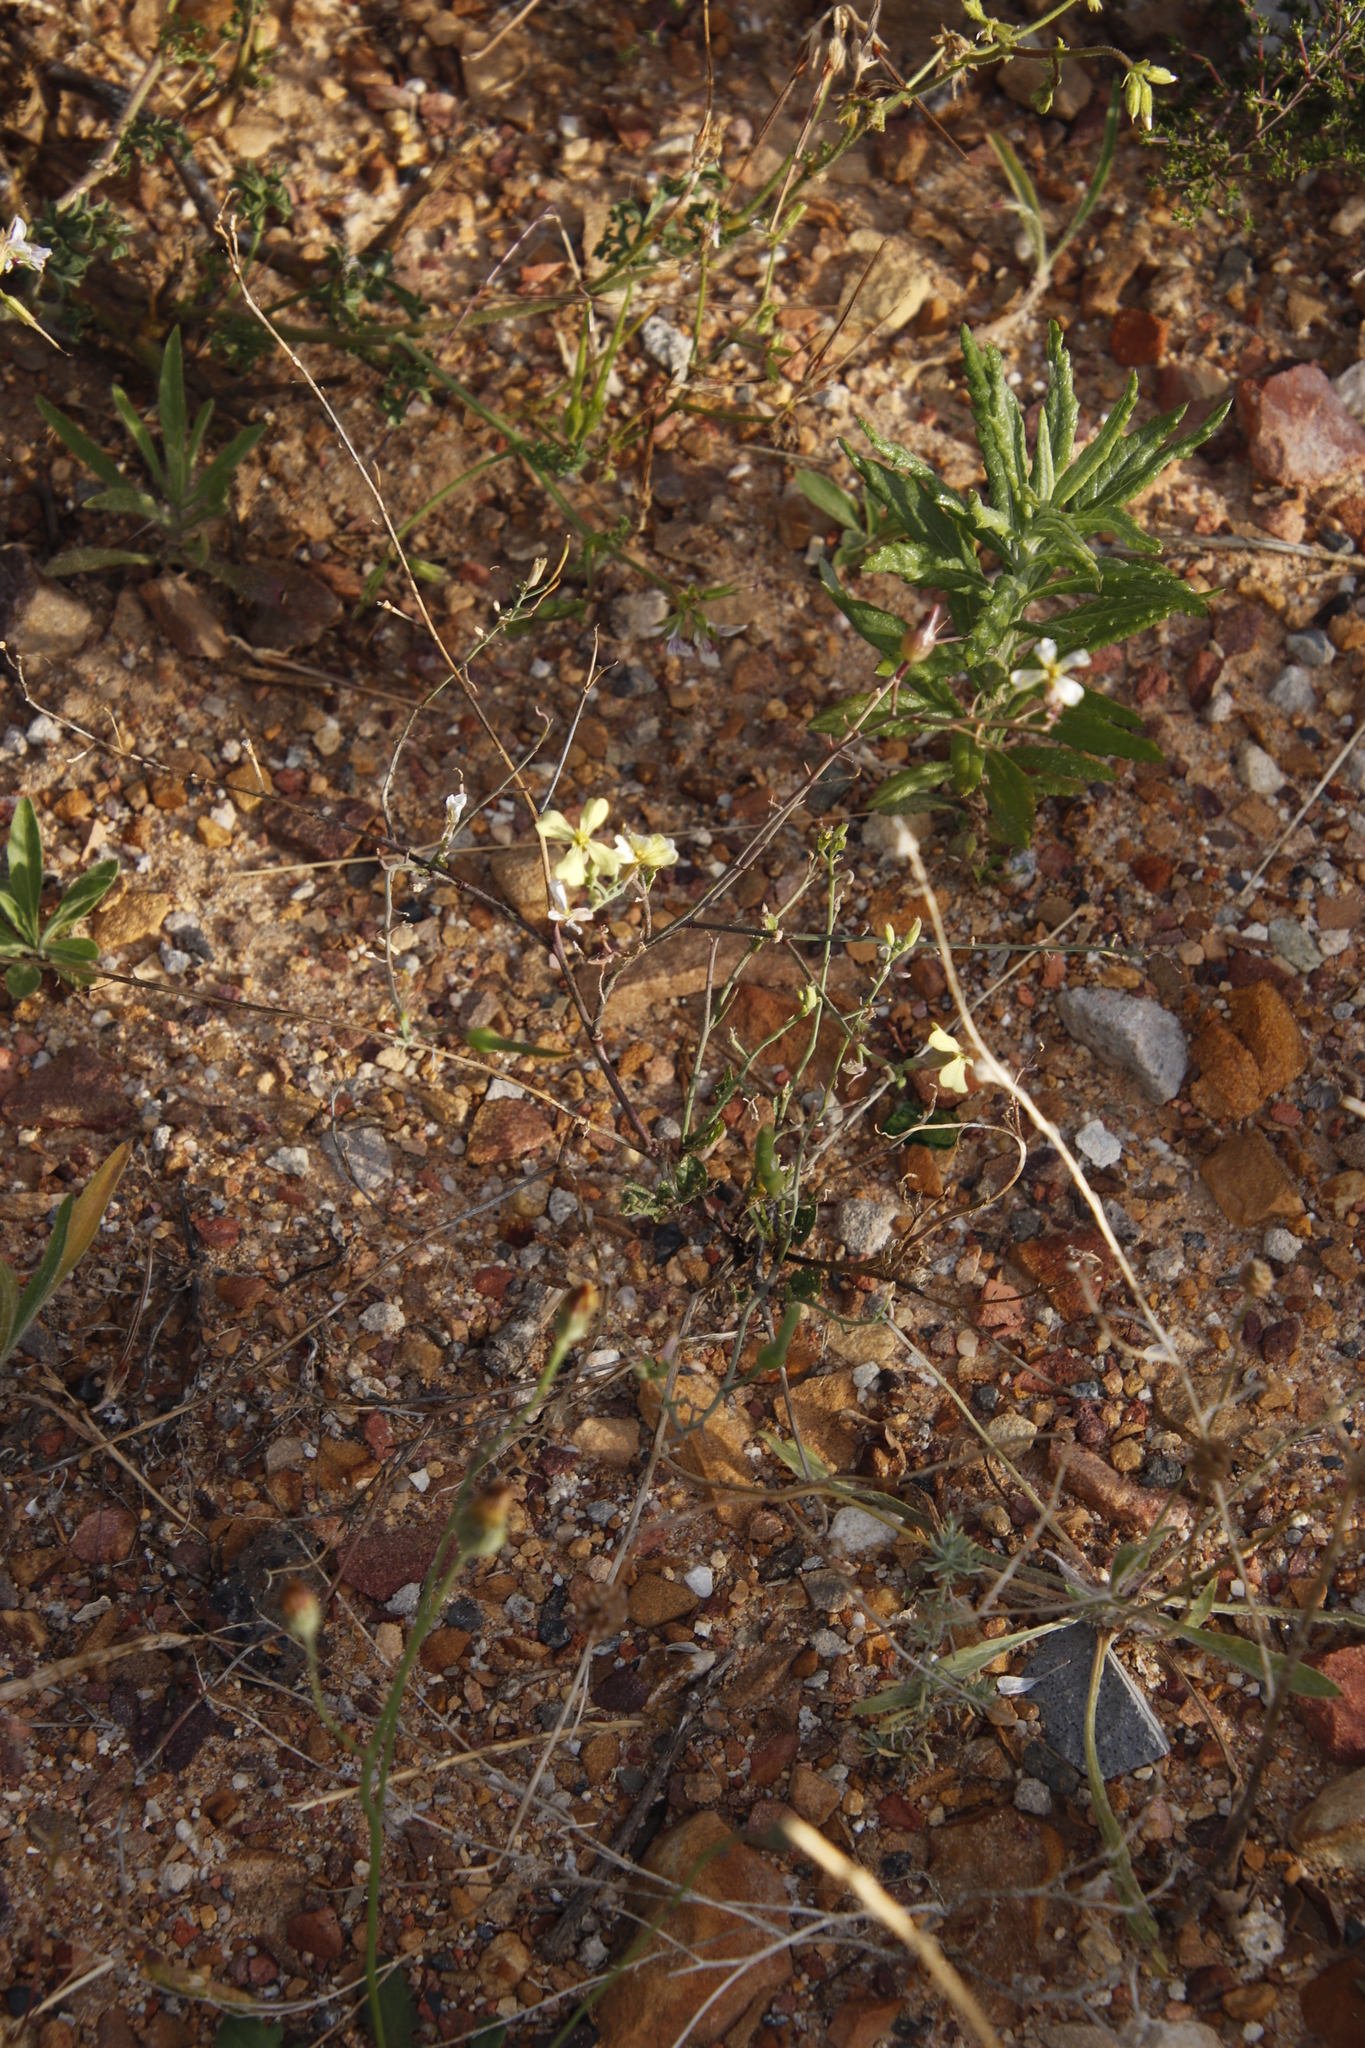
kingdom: Plantae
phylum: Tracheophyta
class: Magnoliopsida
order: Brassicales
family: Brassicaceae
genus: Raphanus
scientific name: Raphanus raphanistrum
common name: Wild radish
